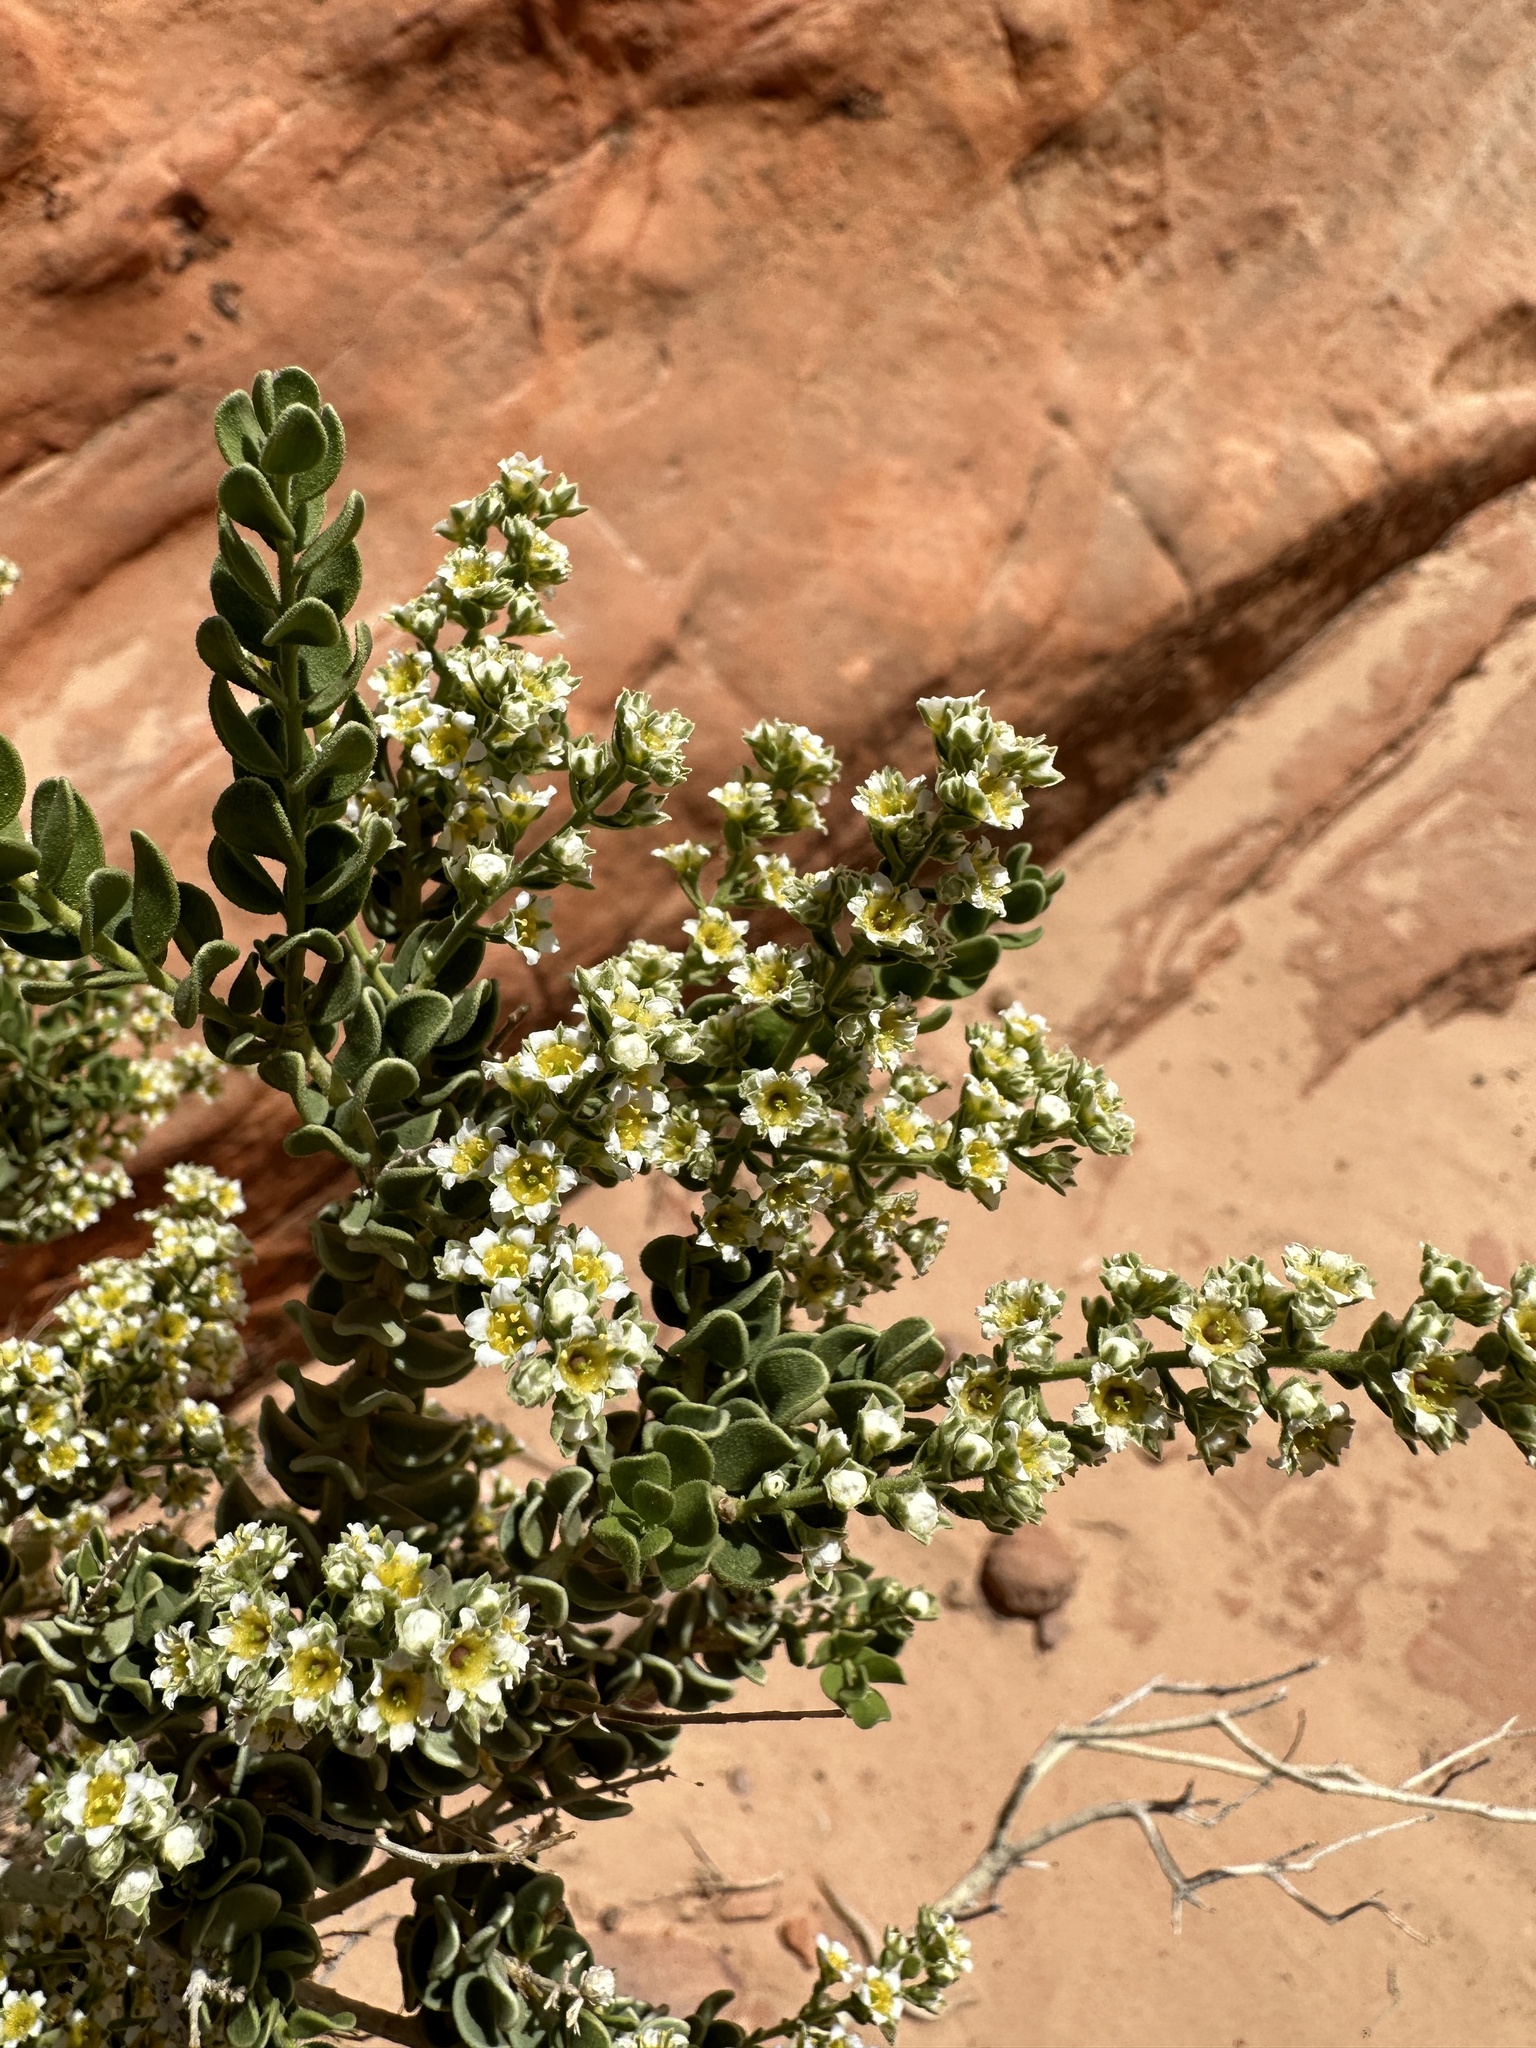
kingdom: Plantae
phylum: Tracheophyta
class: Magnoliopsida
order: Celastrales
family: Celastraceae
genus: Mortonia
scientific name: Mortonia utahensis
